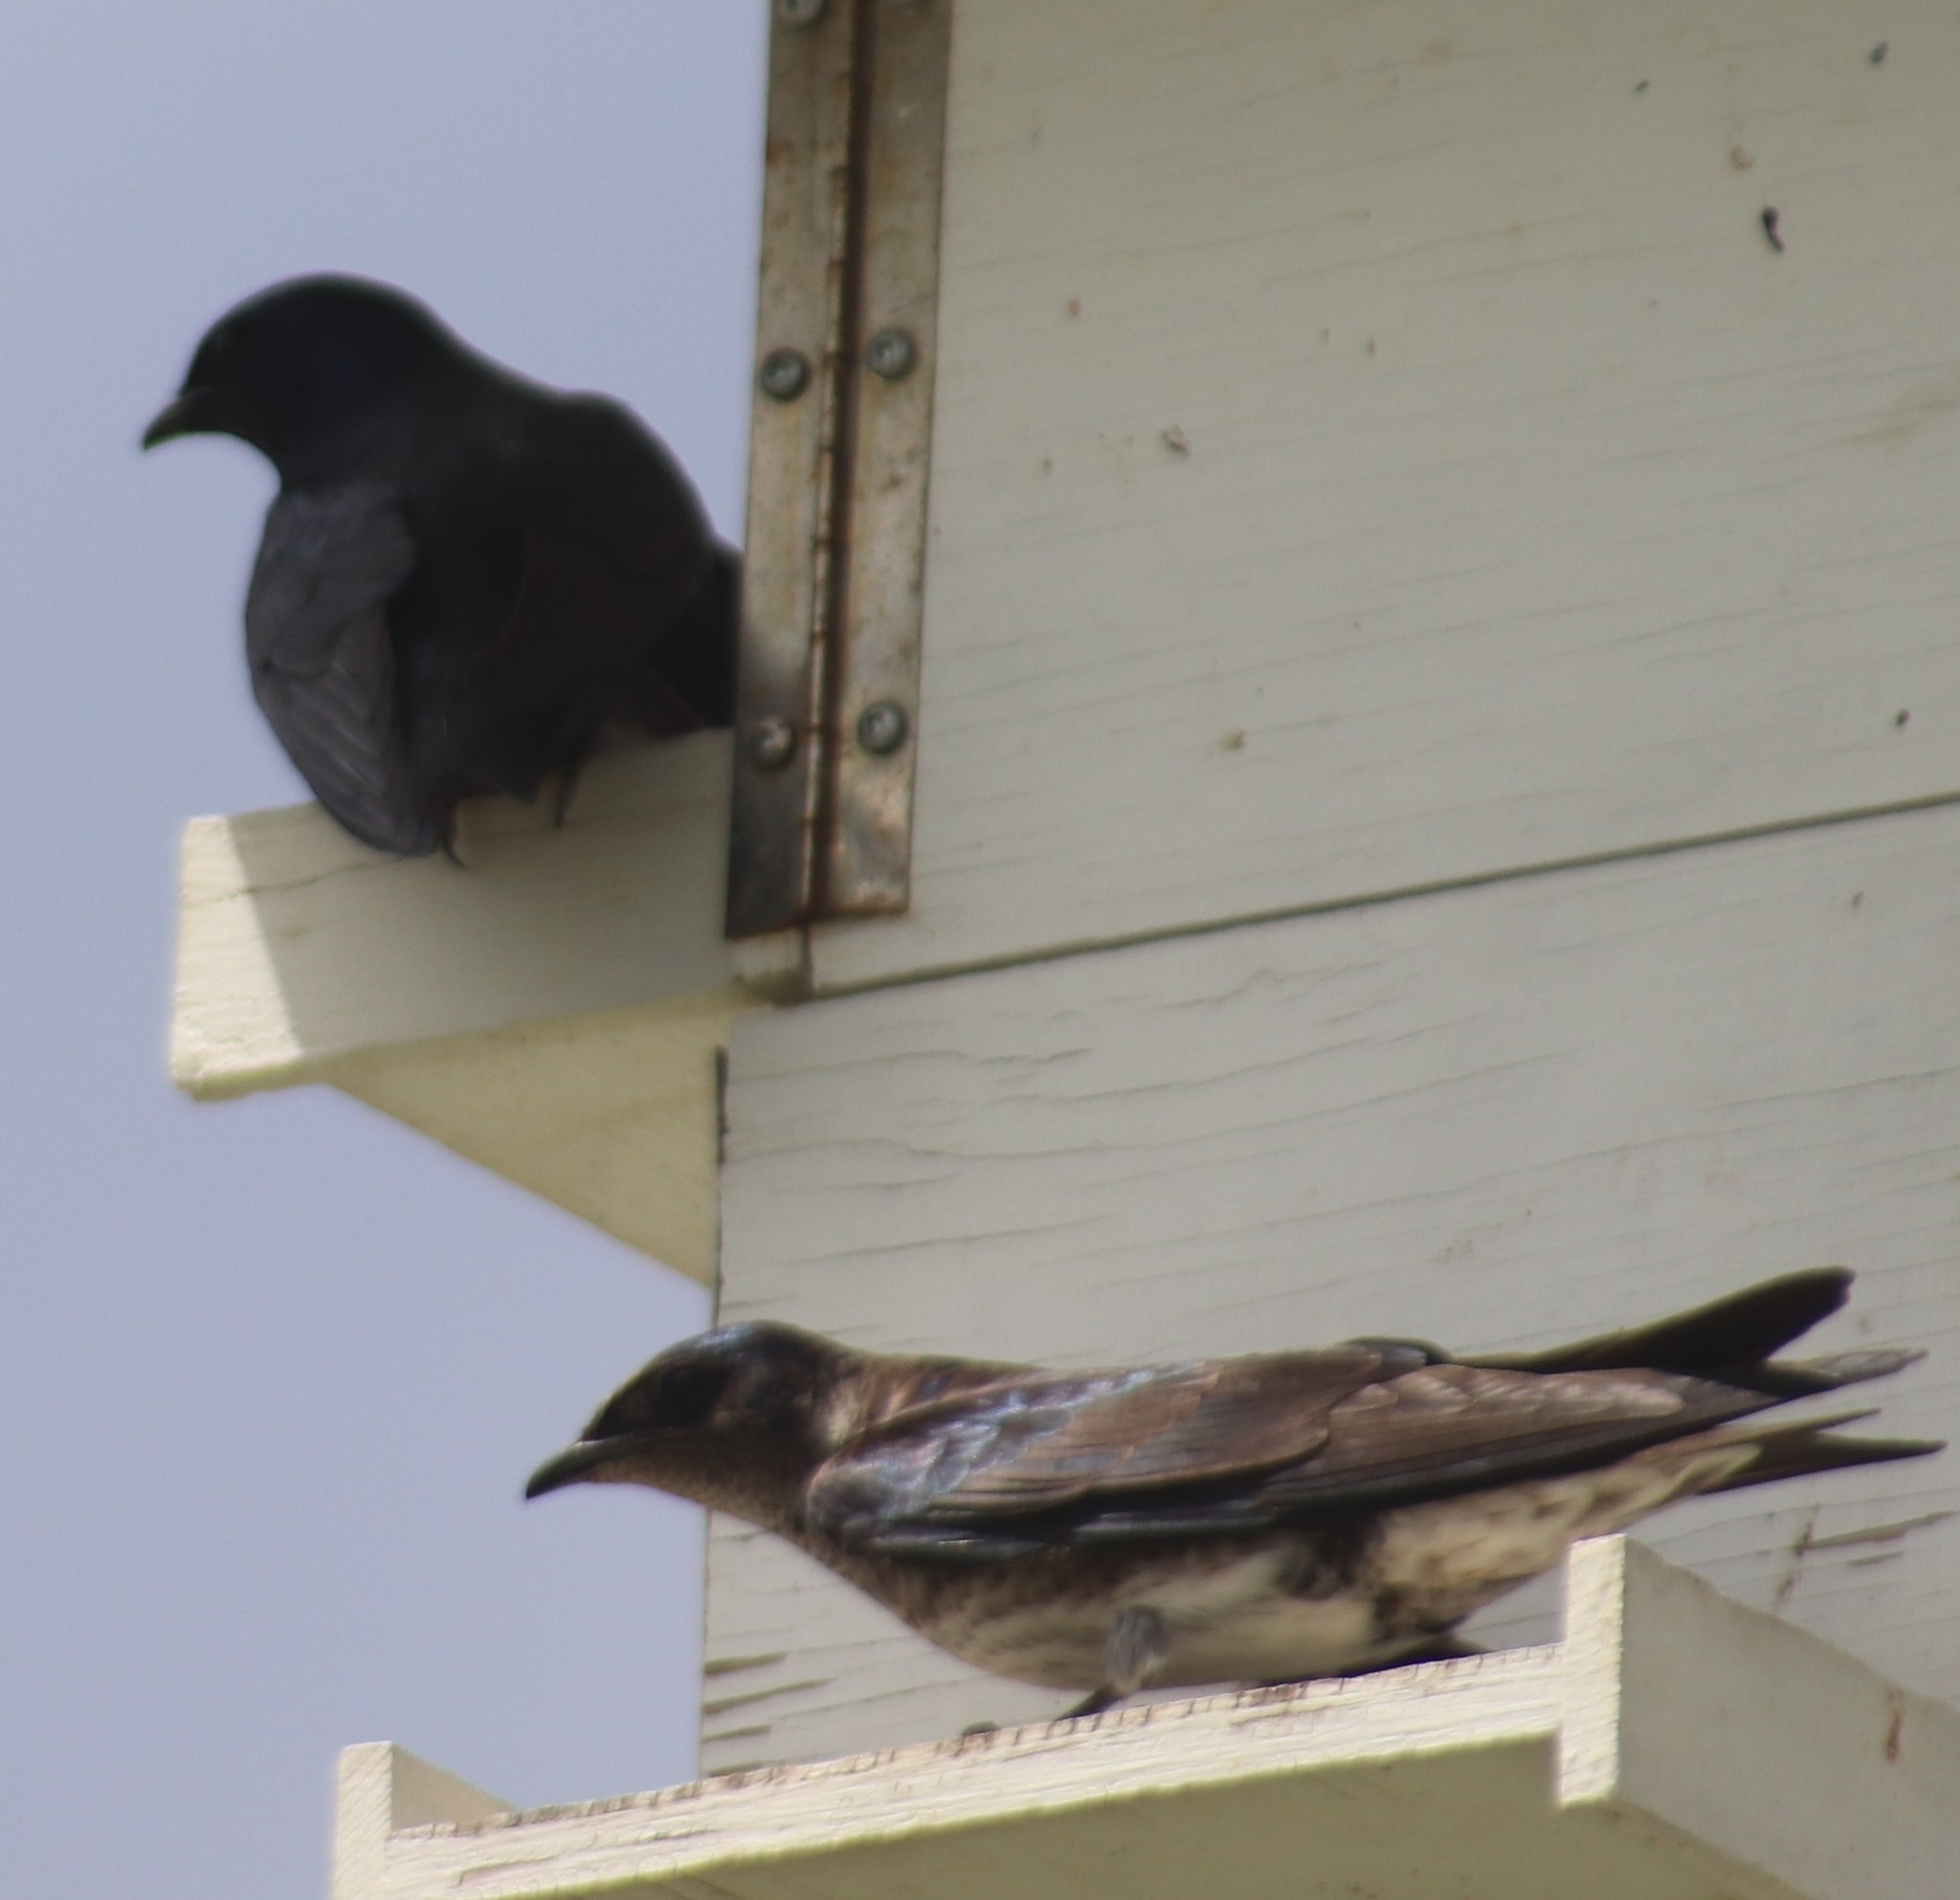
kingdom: Animalia
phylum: Chordata
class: Aves
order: Passeriformes
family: Hirundinidae
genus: Progne
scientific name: Progne subis
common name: Purple martin
